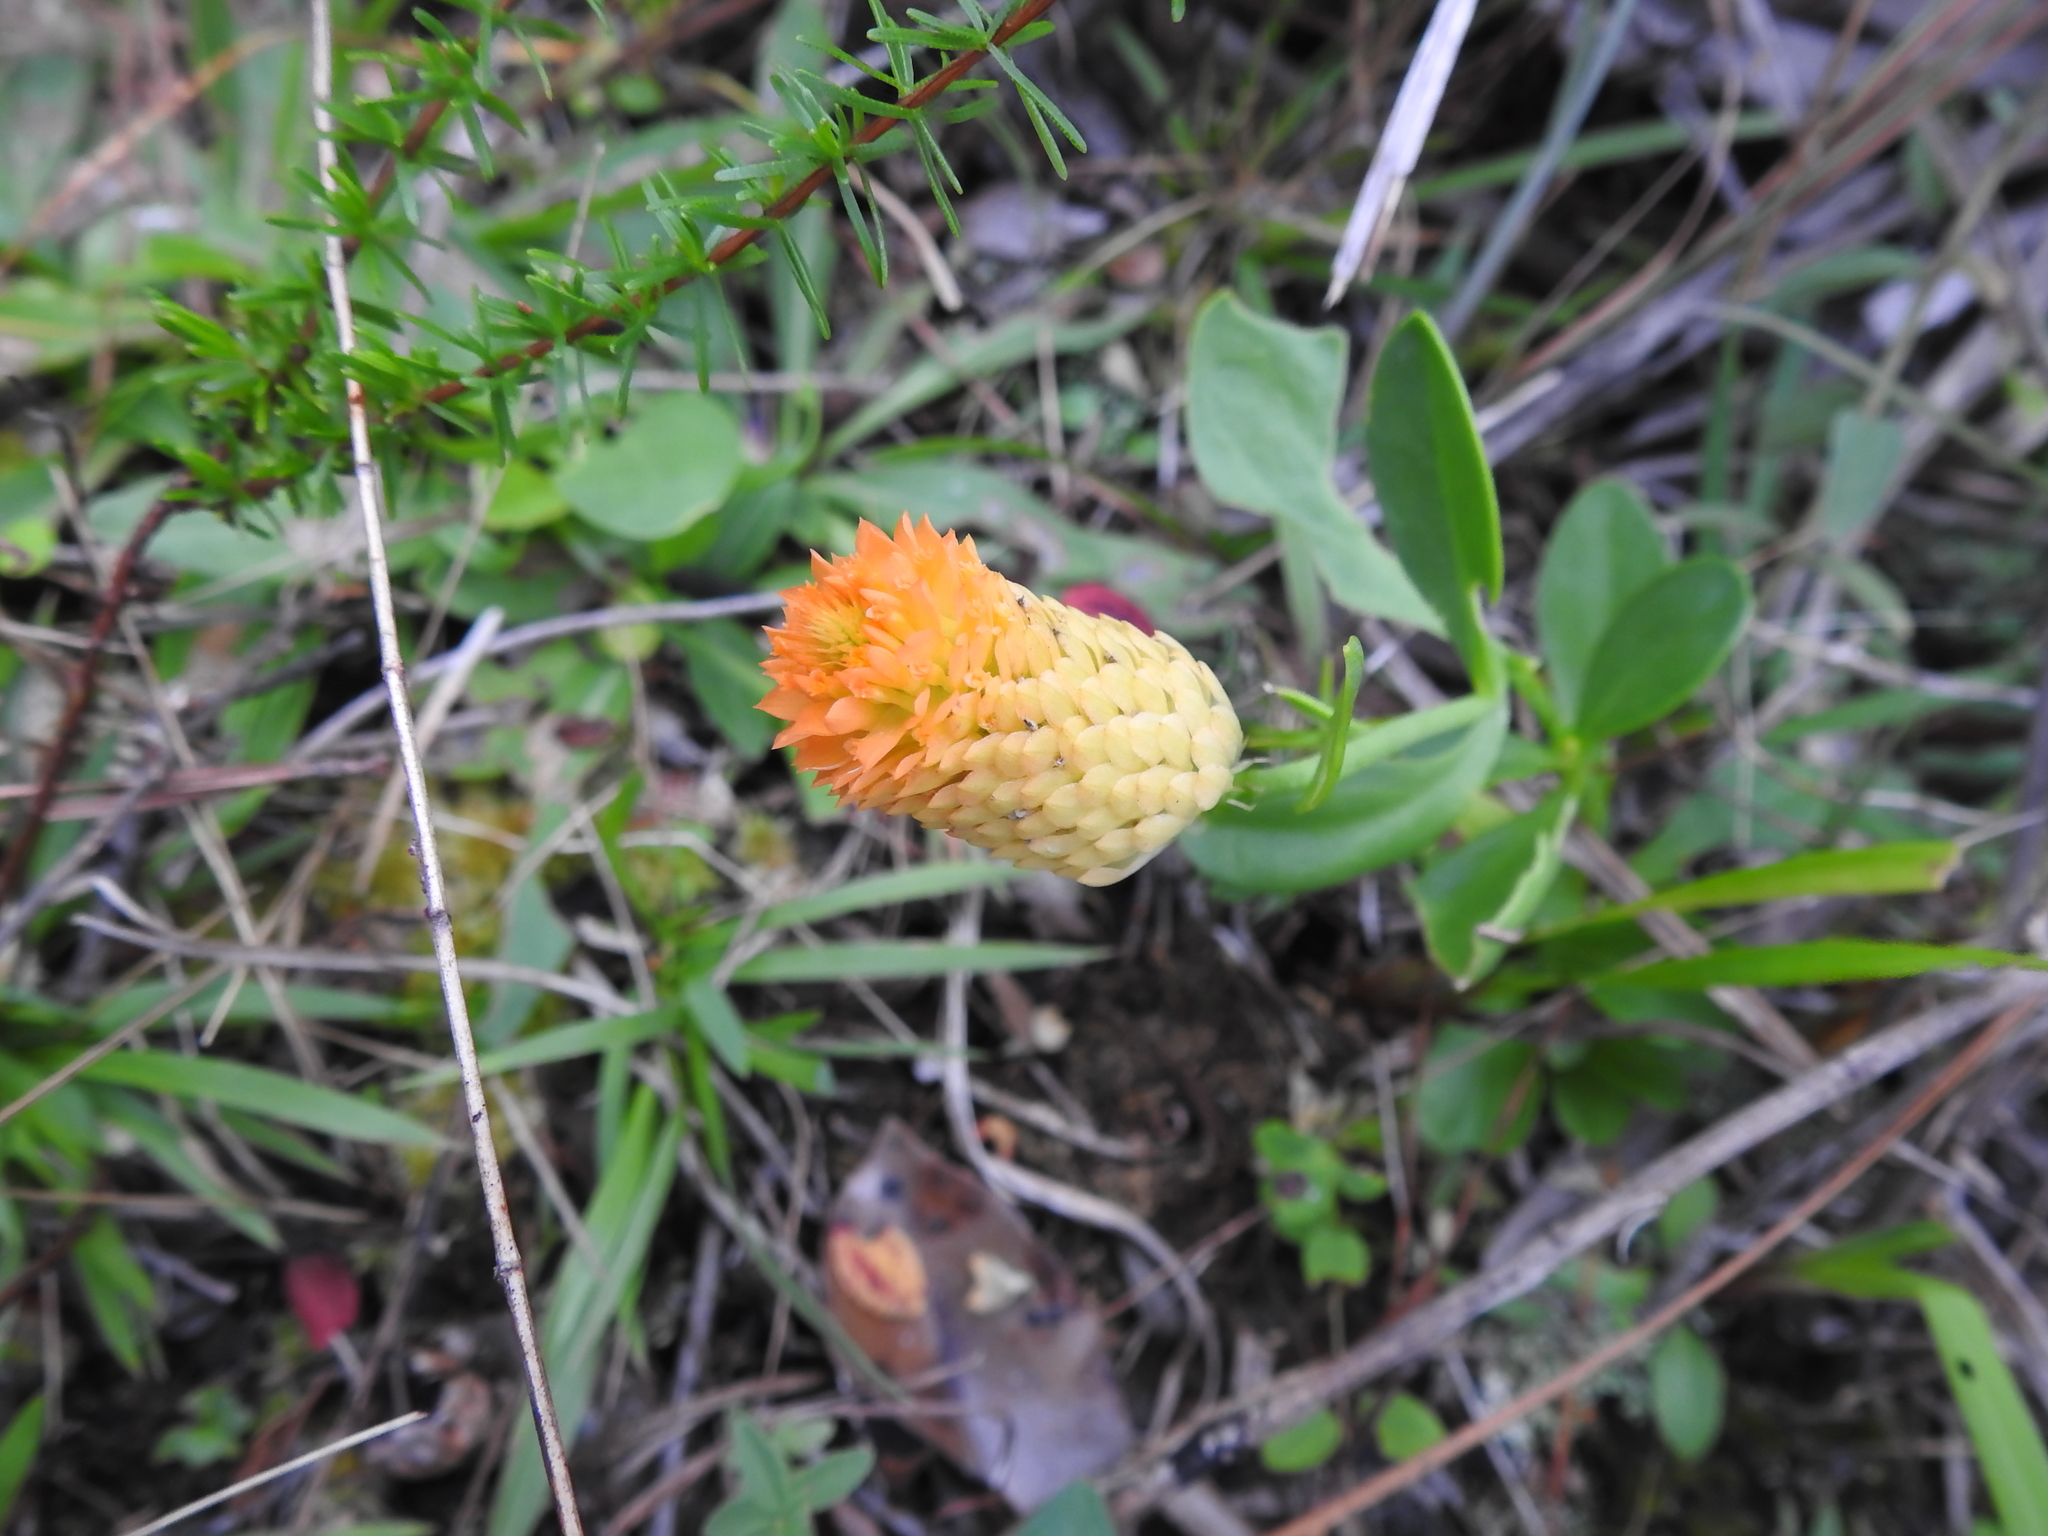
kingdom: Plantae
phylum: Tracheophyta
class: Magnoliopsida
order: Fabales
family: Polygalaceae
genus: Polygala
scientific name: Polygala lutea
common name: Orange milkwort
